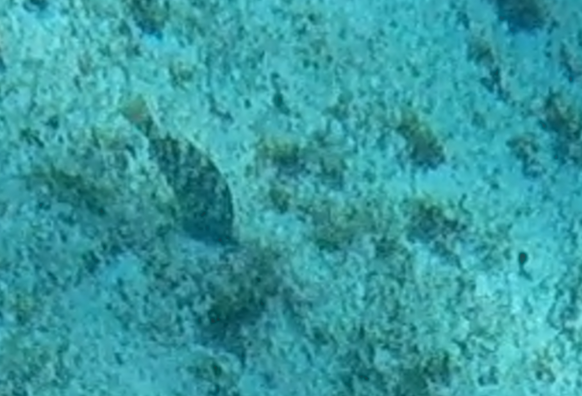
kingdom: Animalia
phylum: Chordata
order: Perciformes
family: Scaridae
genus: Sparisoma
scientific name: Sparisoma
